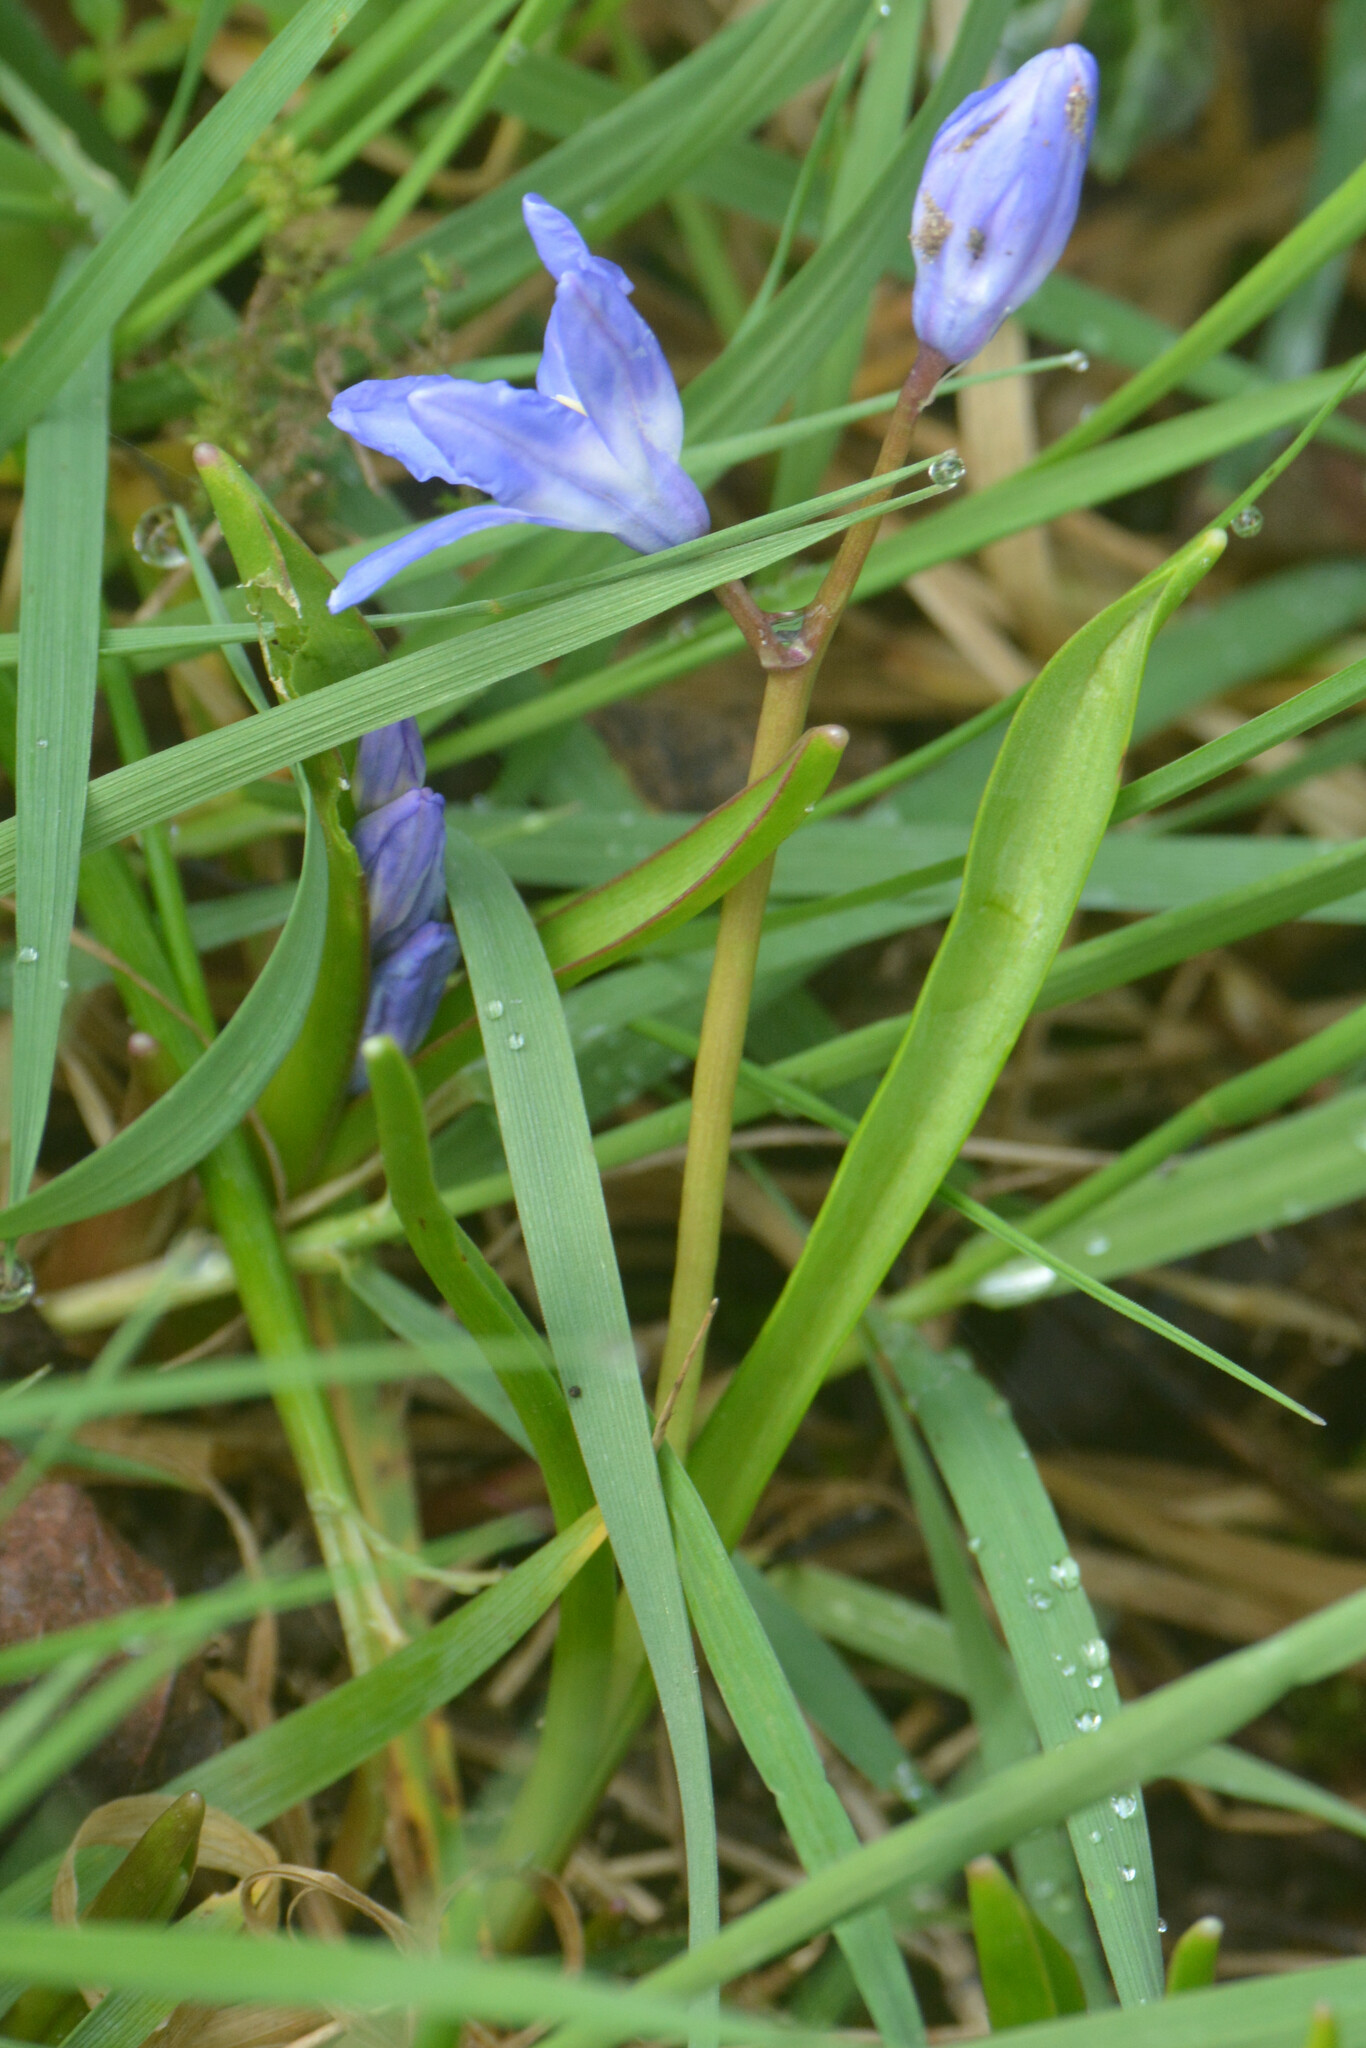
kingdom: Plantae
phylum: Tracheophyta
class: Liliopsida
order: Asparagales
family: Asparagaceae
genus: Scilla
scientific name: Scilla forbesii
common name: Glory-of-the-snow
